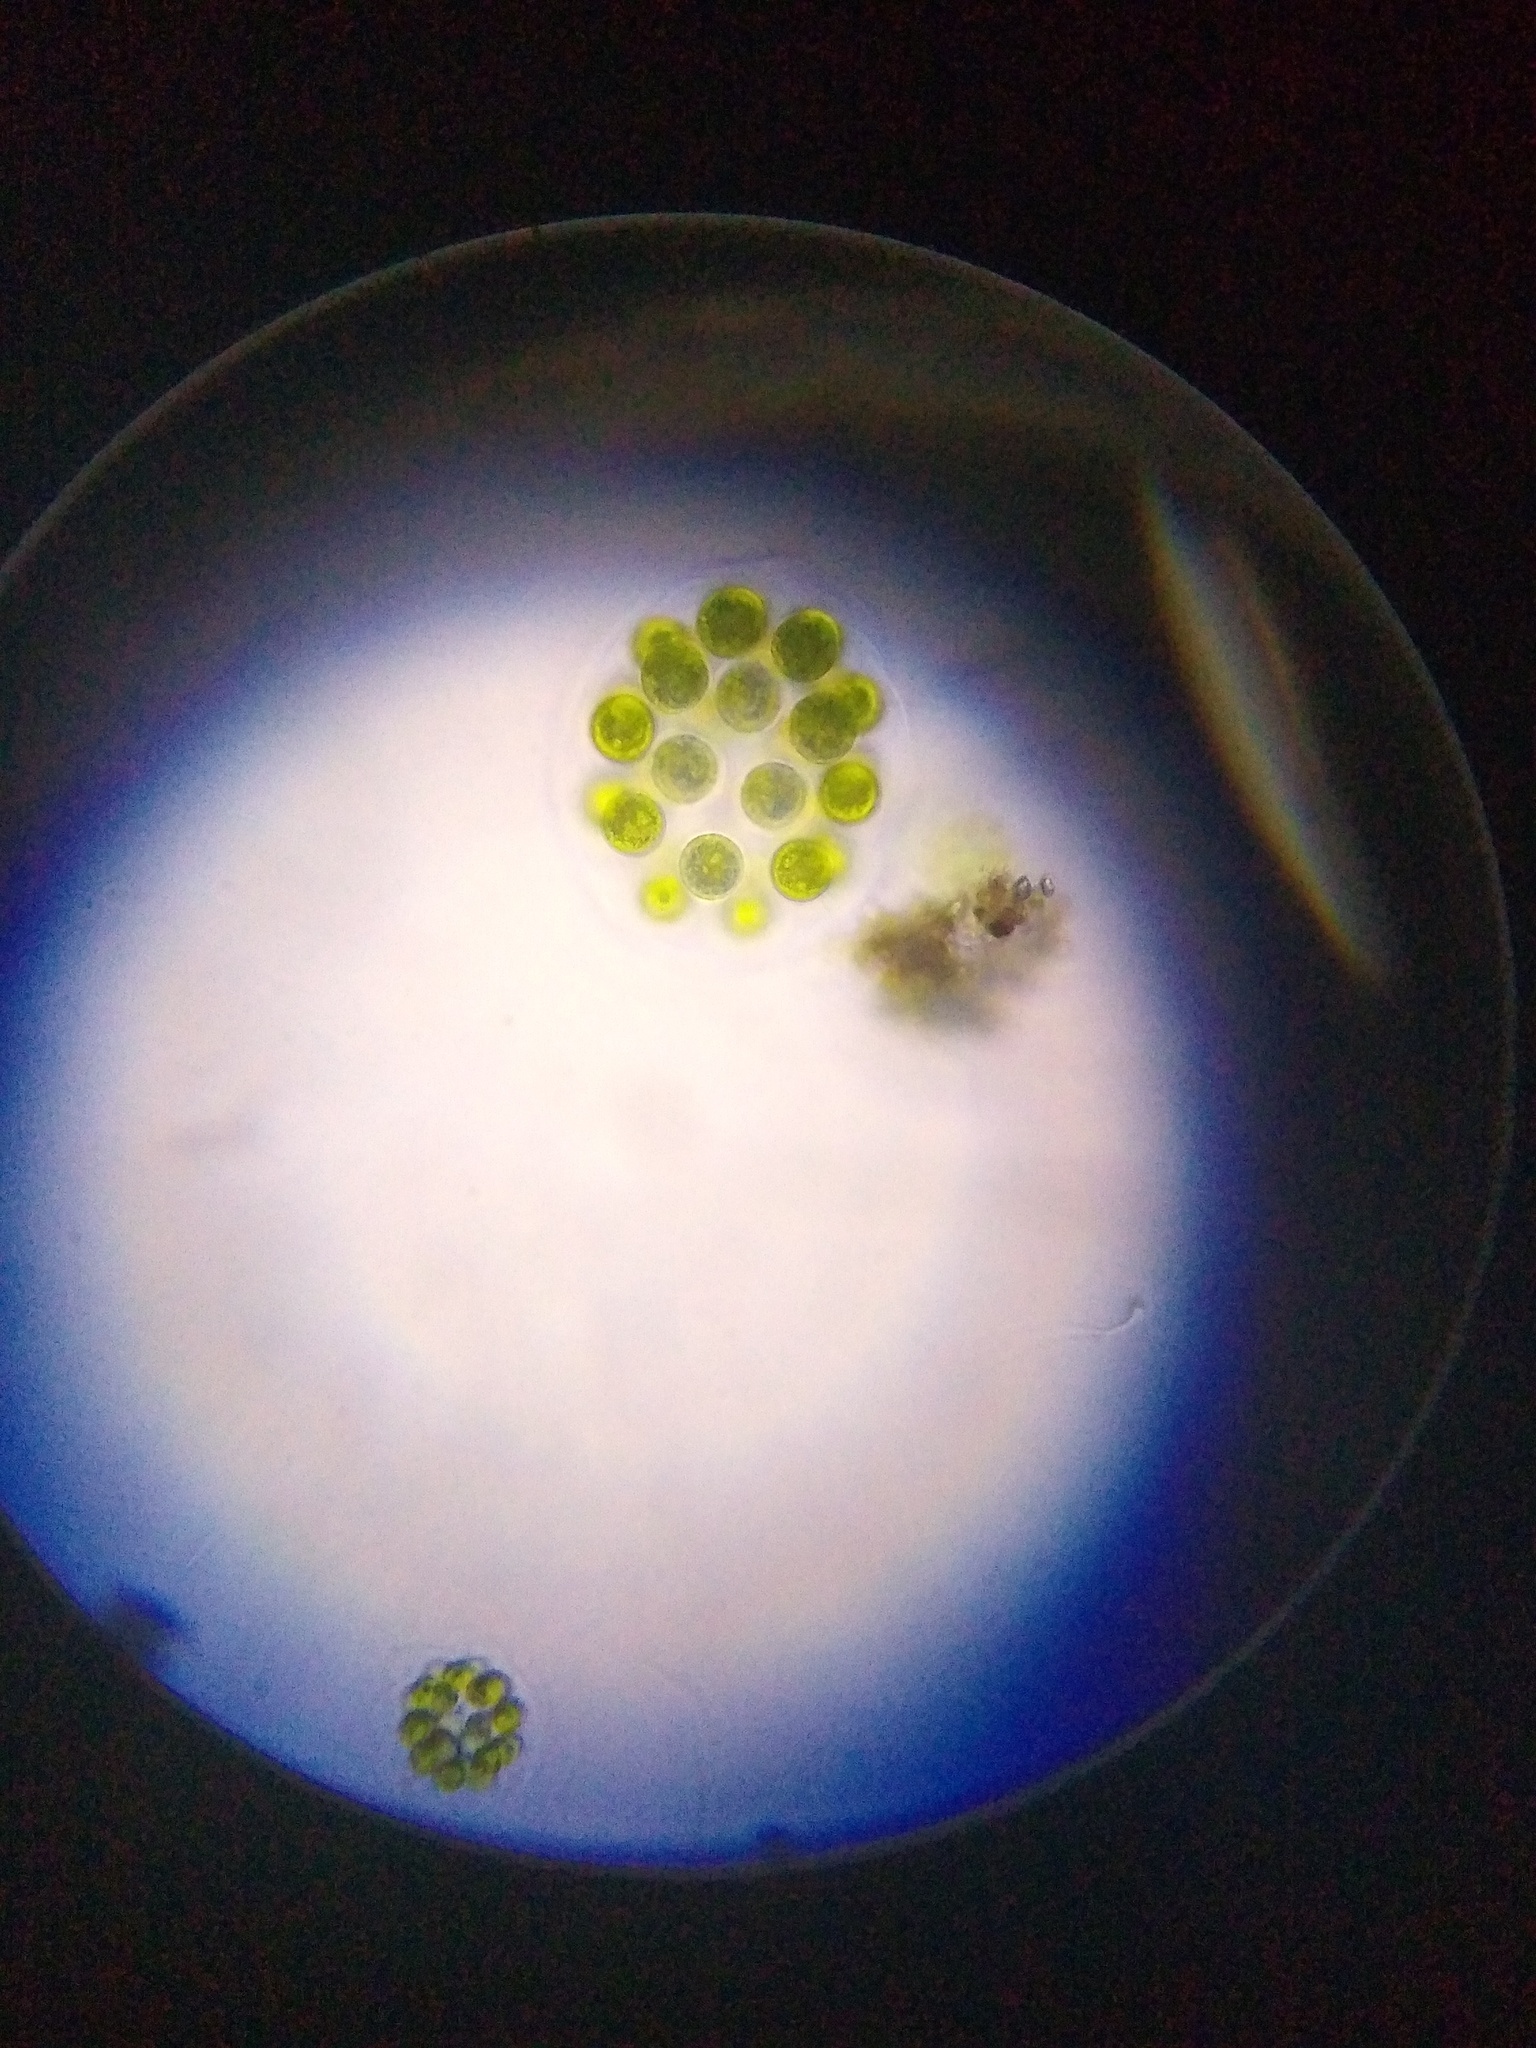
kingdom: Plantae
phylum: Chlorophyta
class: Chlorophyceae
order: Volvocales
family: Volvocaceae
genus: Eudorina
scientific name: Eudorina elegans
